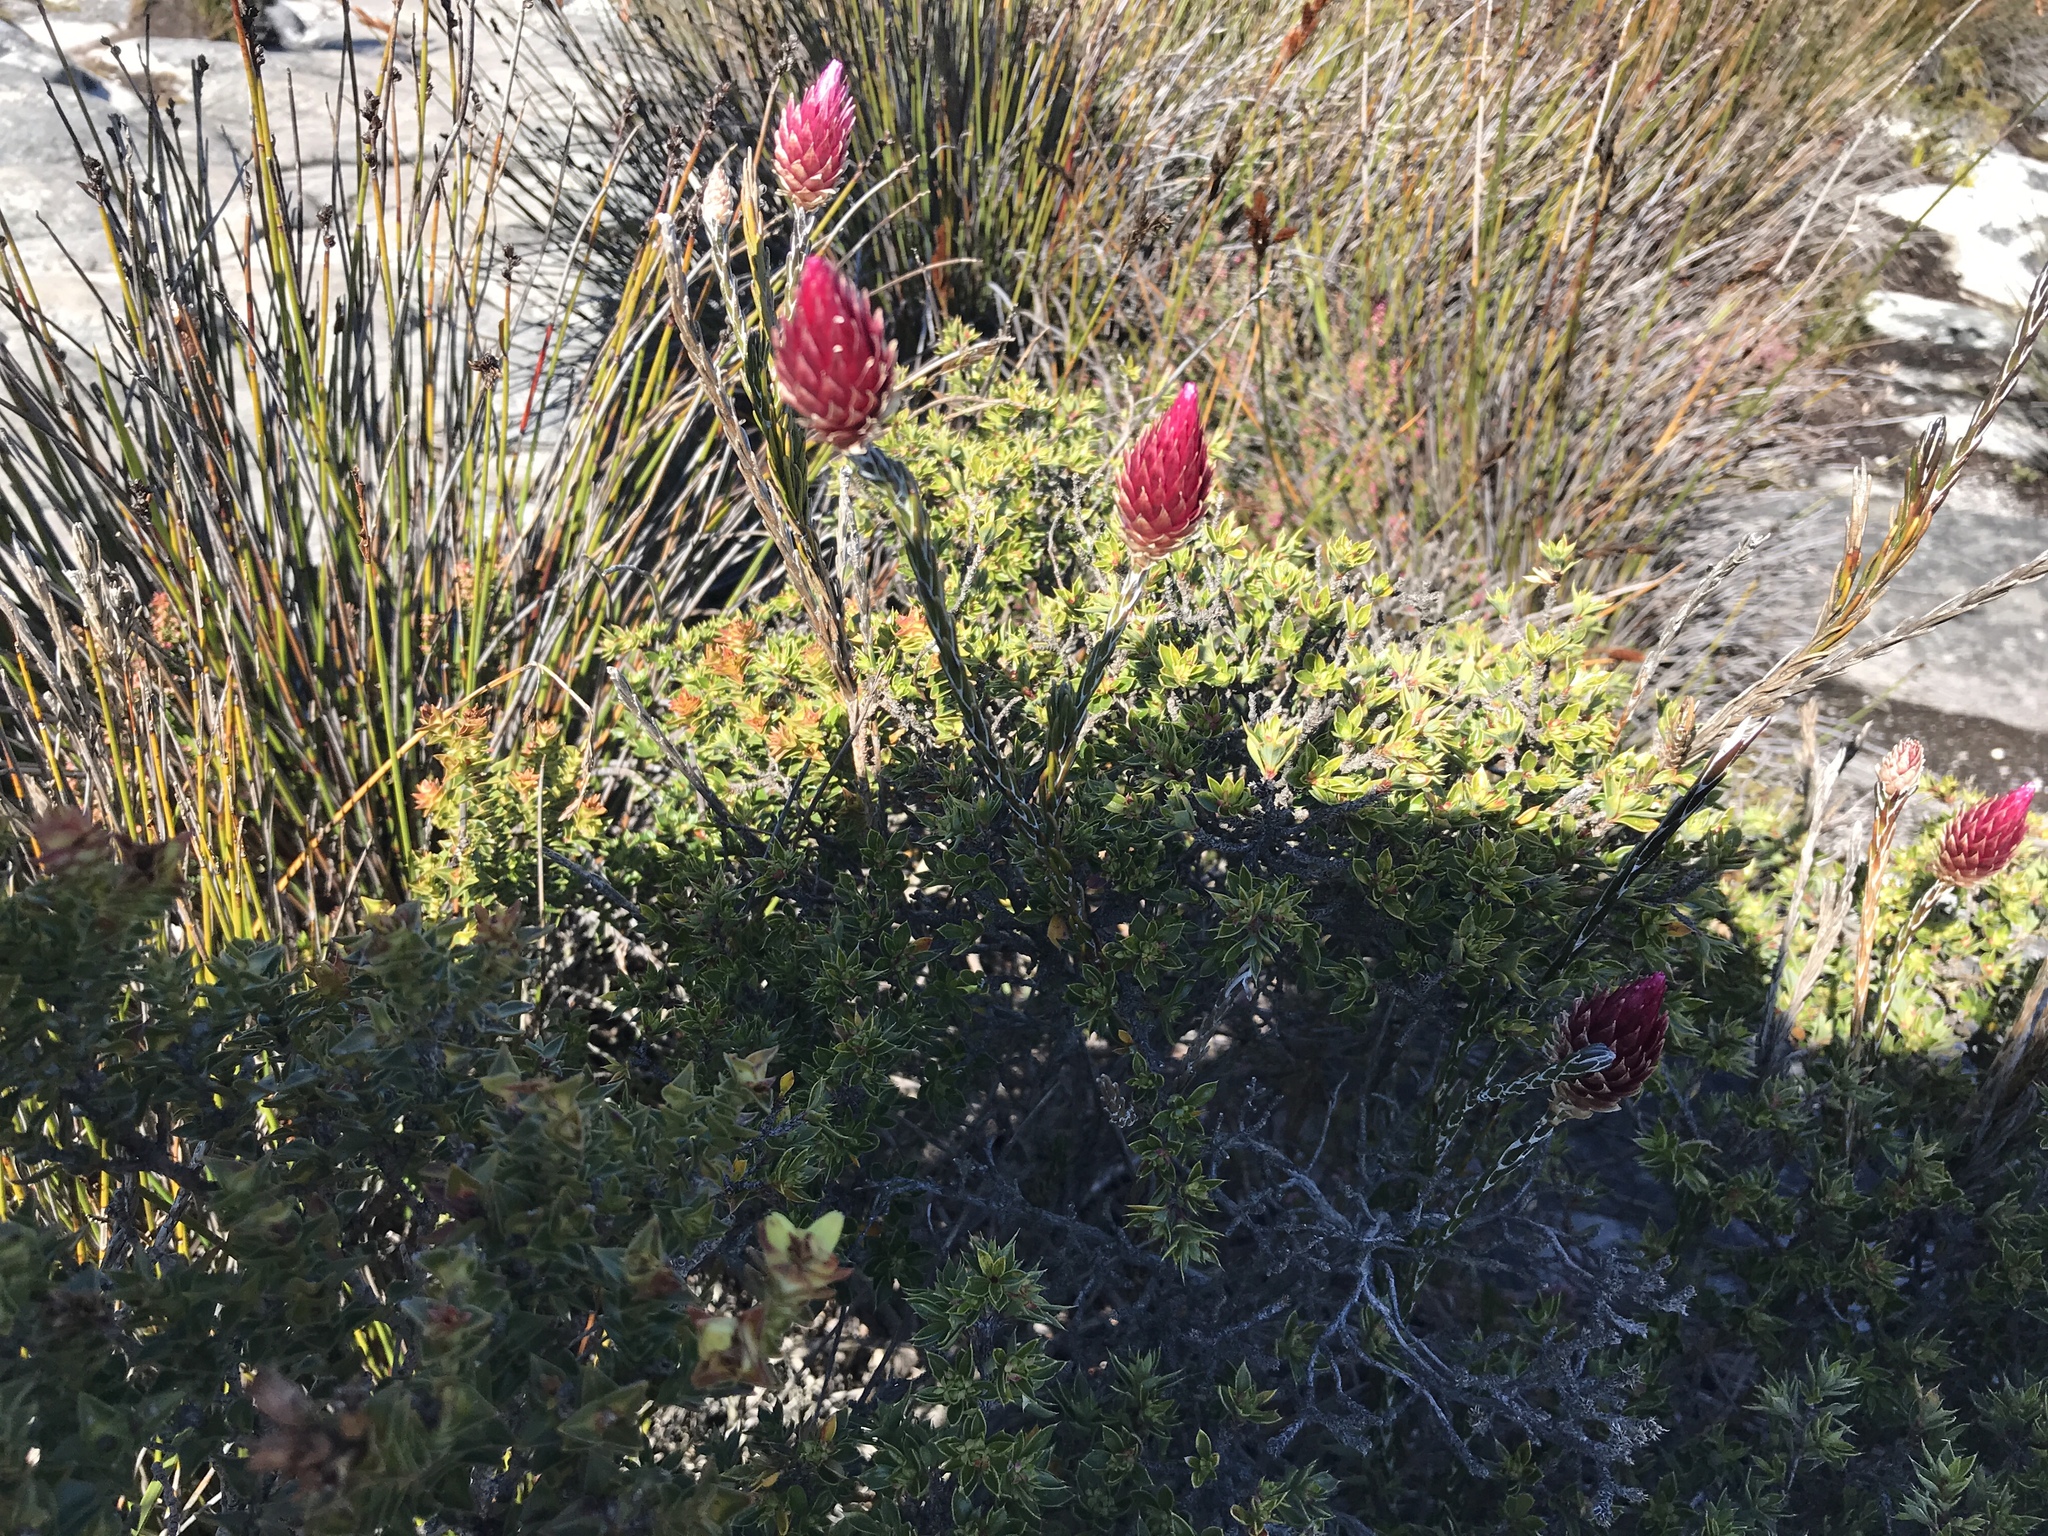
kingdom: Plantae
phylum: Tracheophyta
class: Magnoliopsida
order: Asterales
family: Asteraceae
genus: Edmondia
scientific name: Edmondia sesamoides
